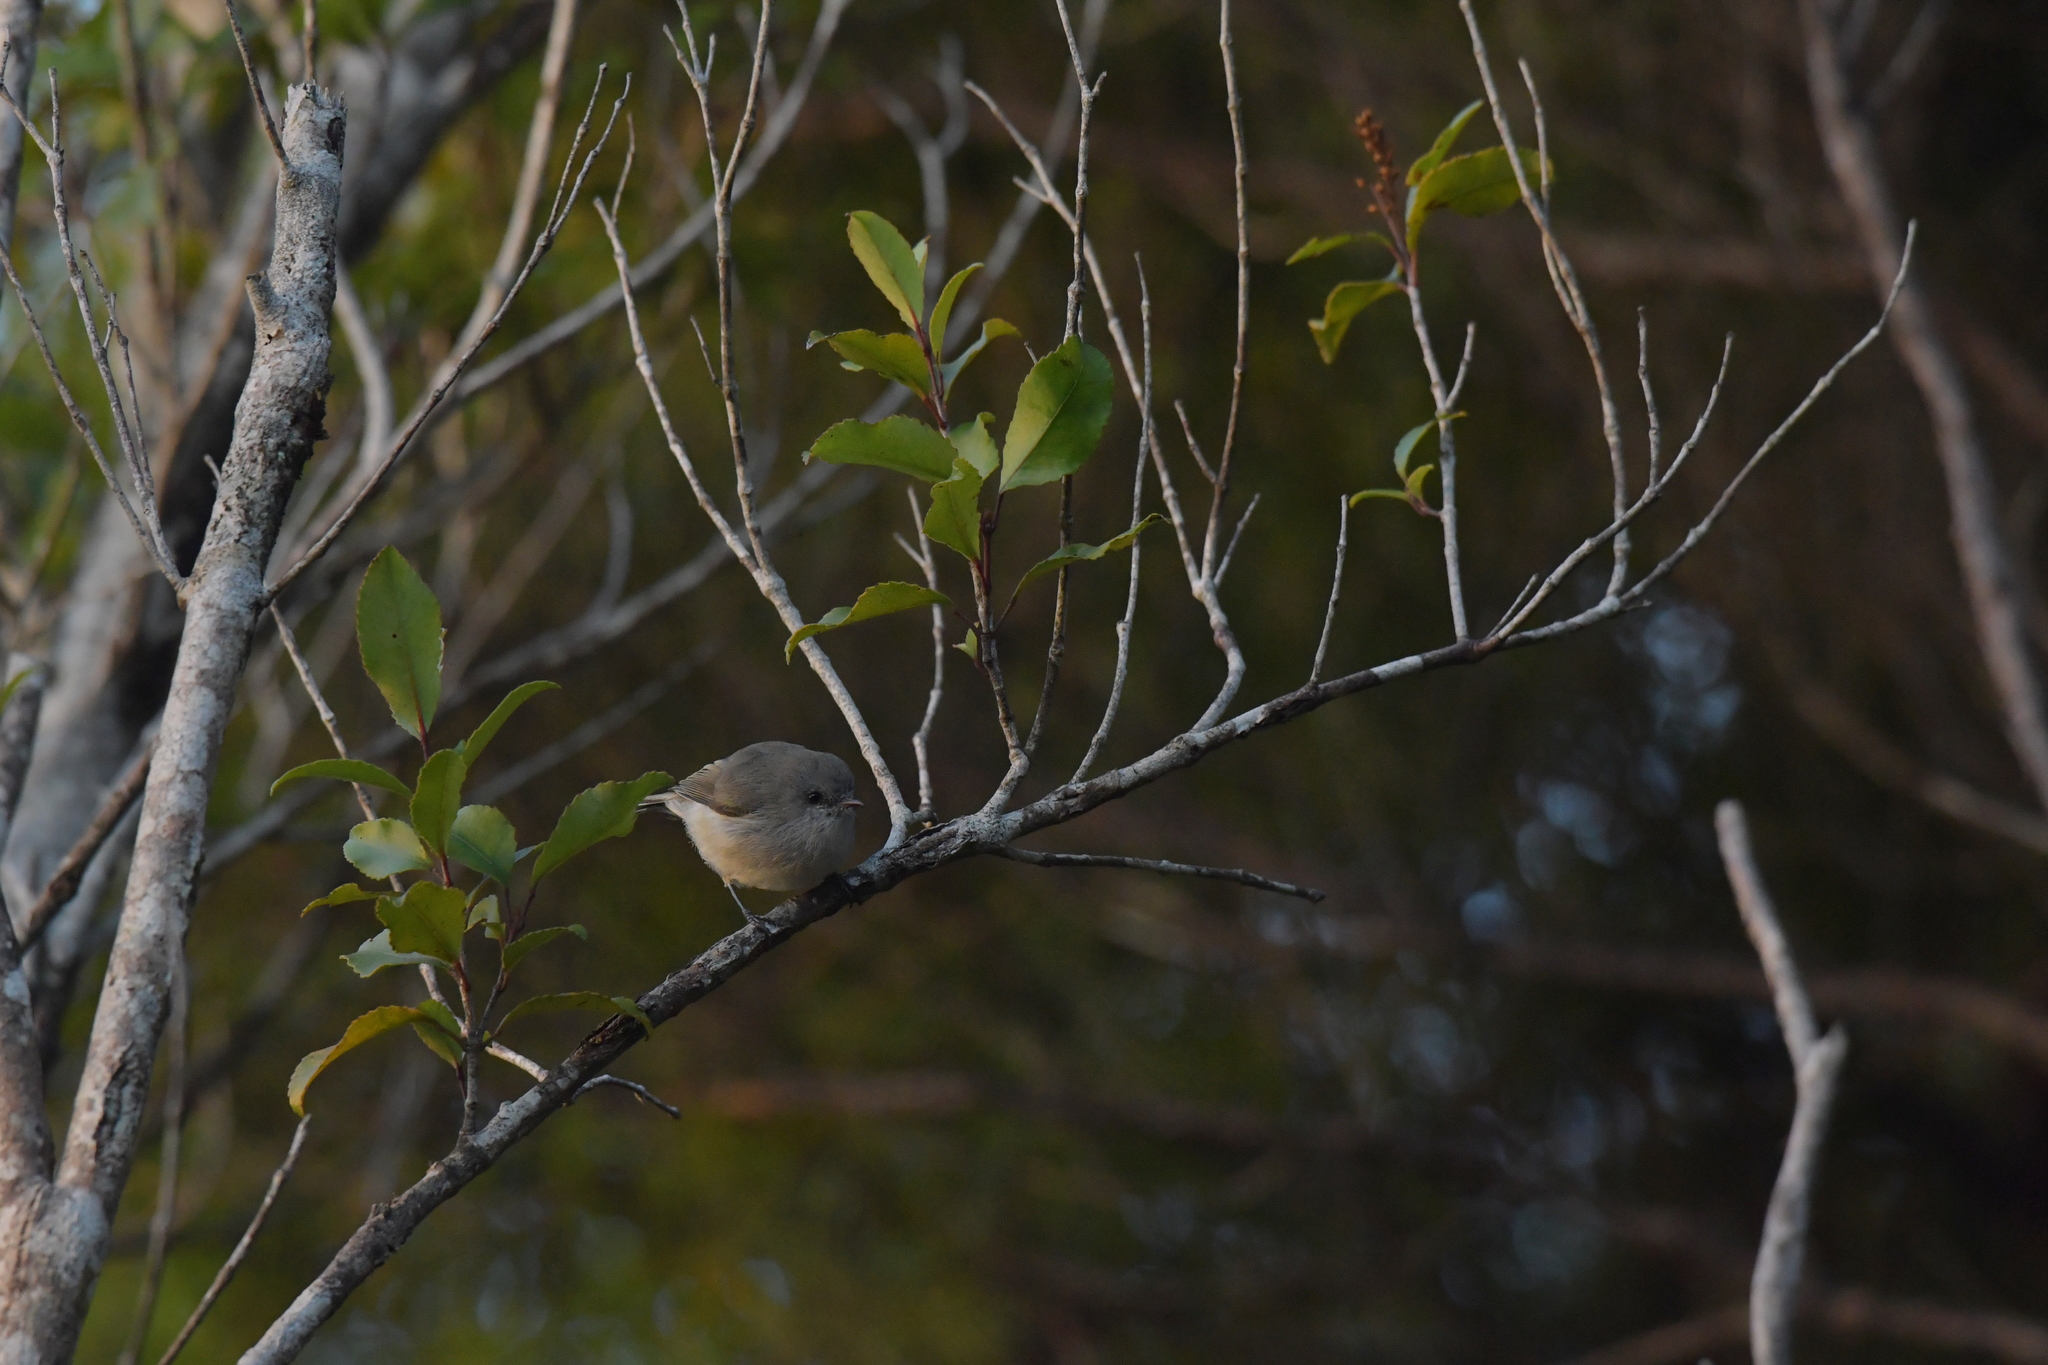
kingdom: Animalia
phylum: Chordata
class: Aves
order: Passeriformes
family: Acanthizidae
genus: Gerygone
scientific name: Gerygone igata
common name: Grey gerygone
